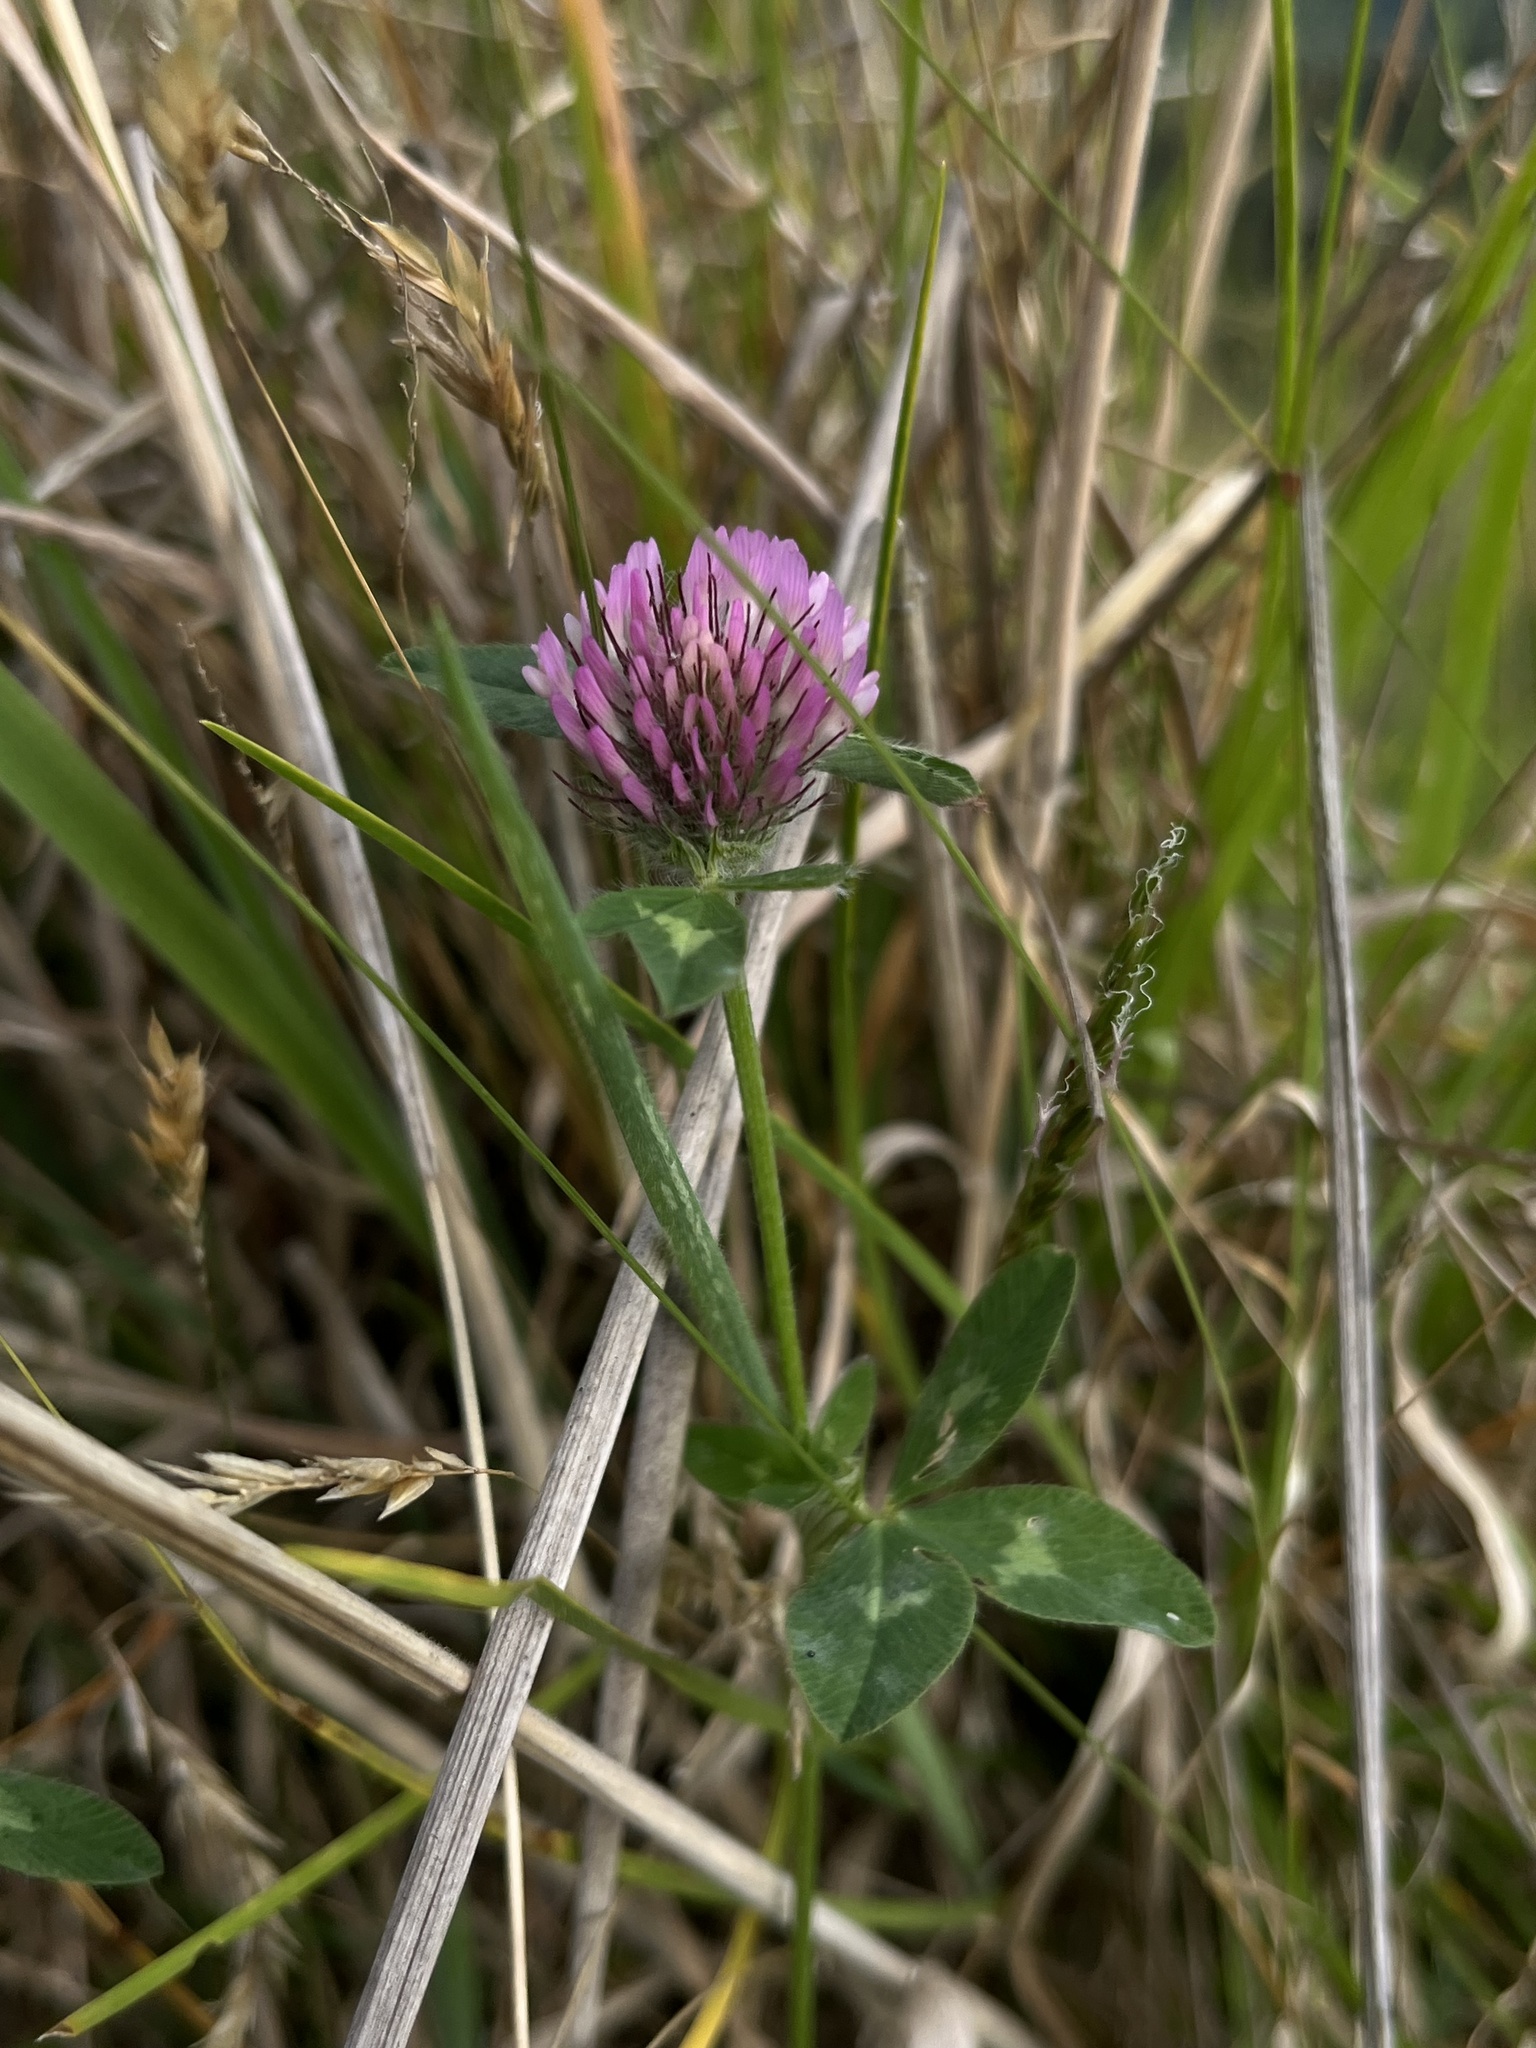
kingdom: Plantae
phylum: Tracheophyta
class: Magnoliopsida
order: Fabales
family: Fabaceae
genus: Trifolium
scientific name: Trifolium pratense
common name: Red clover
